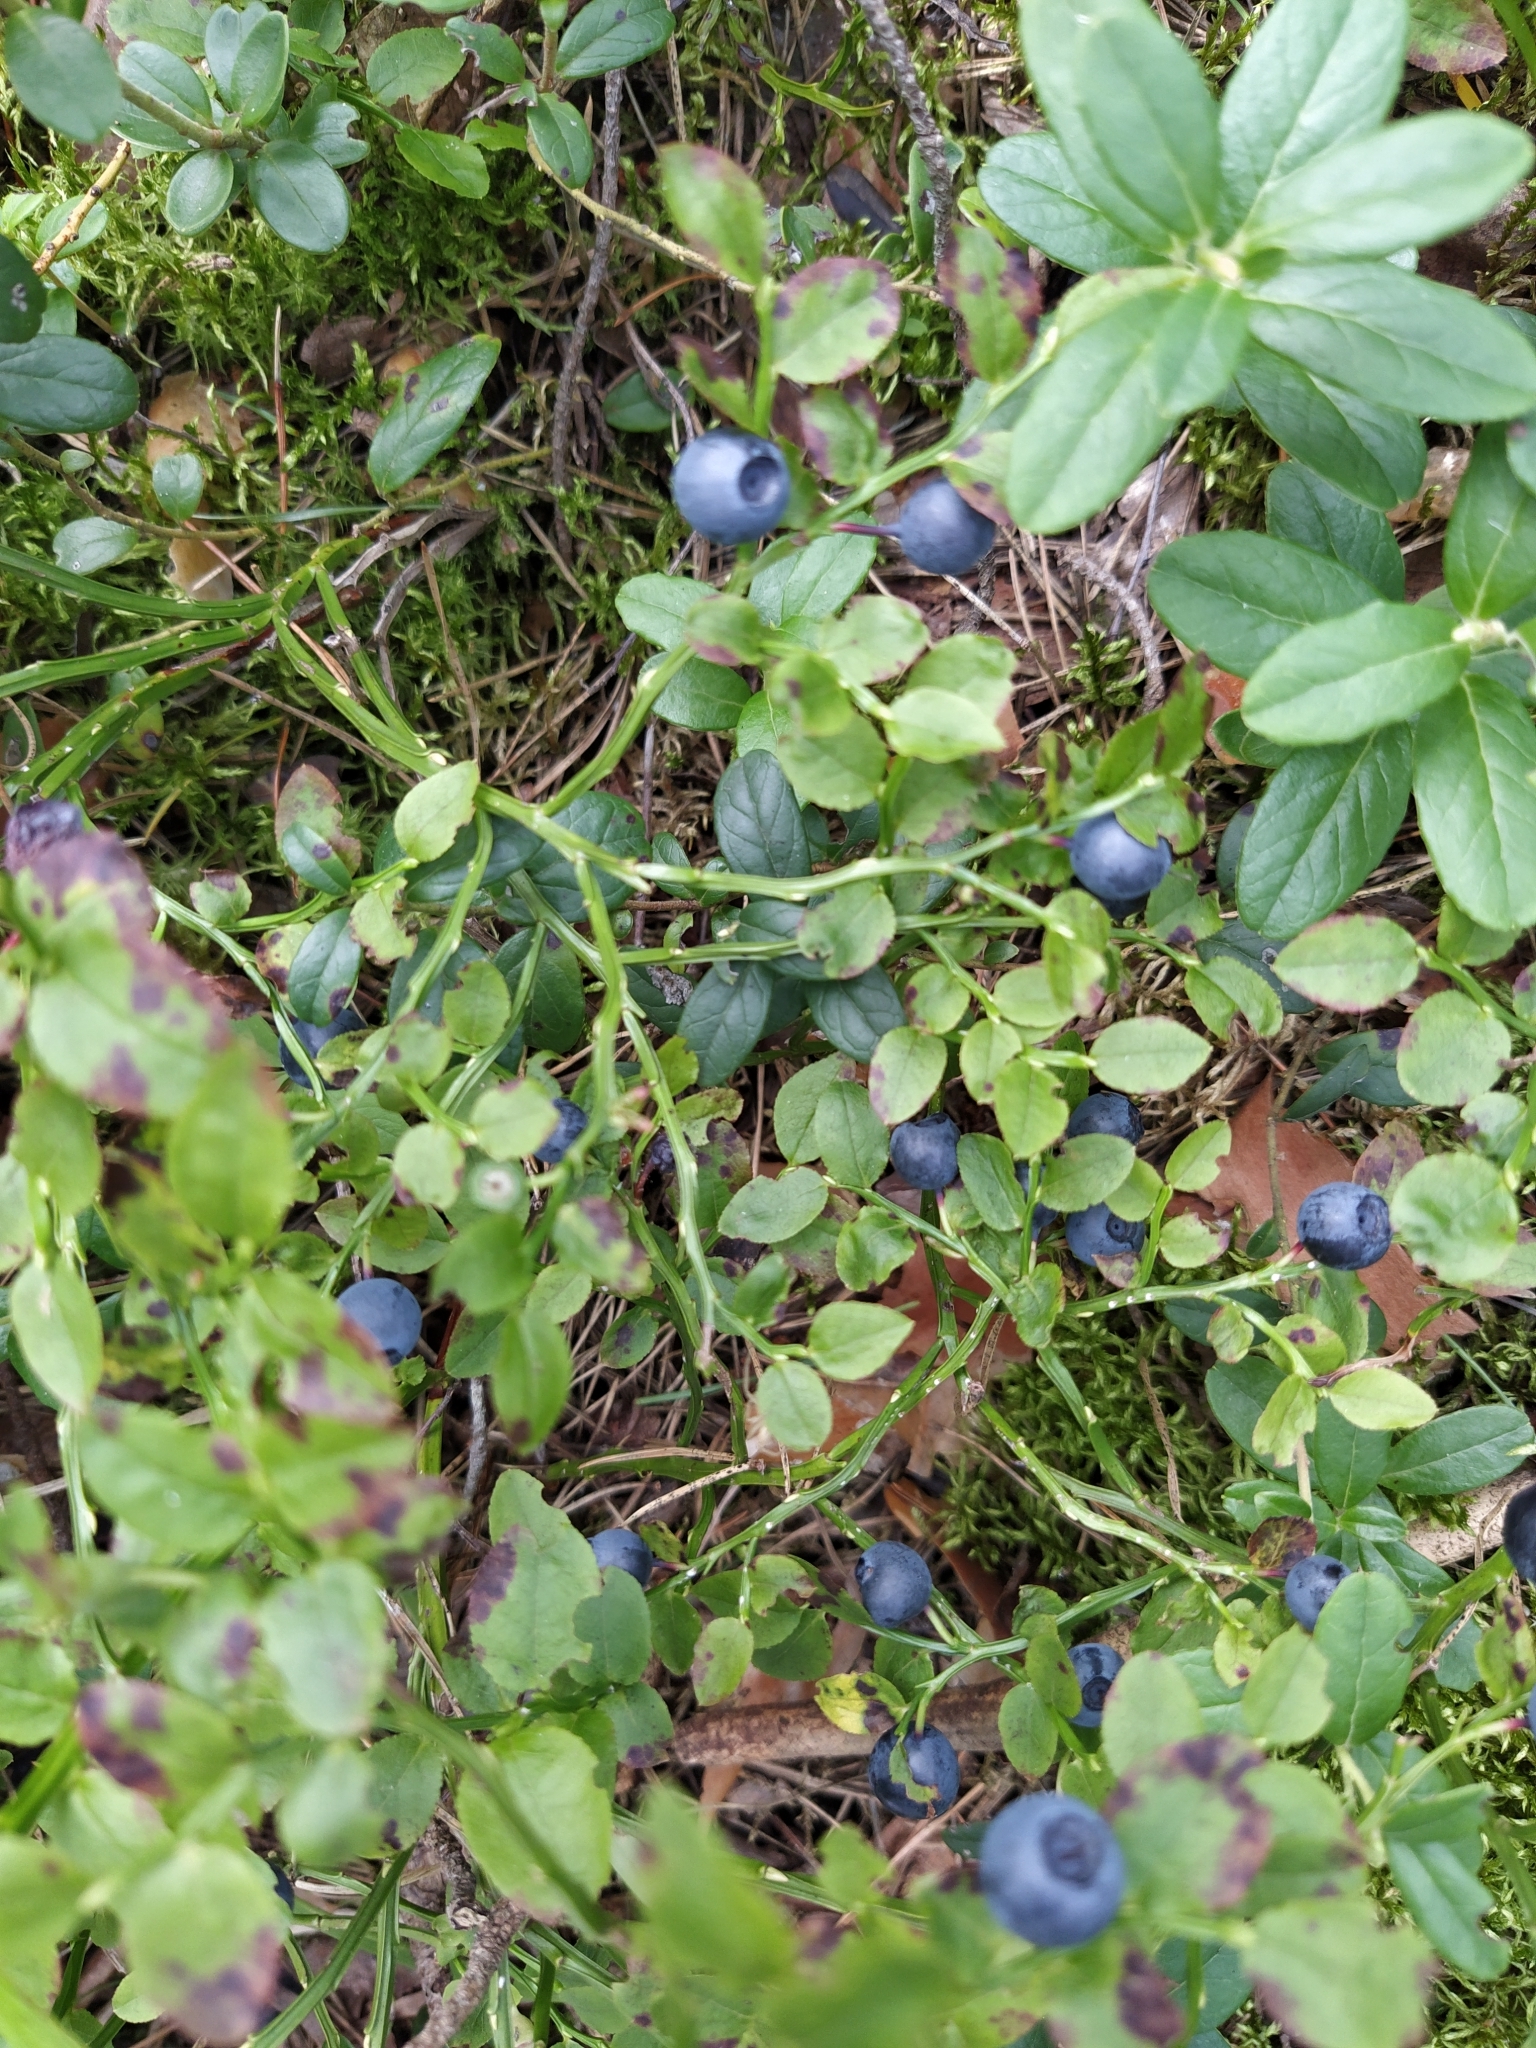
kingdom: Plantae
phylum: Tracheophyta
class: Magnoliopsida
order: Ericales
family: Ericaceae
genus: Vaccinium
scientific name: Vaccinium myrtillus
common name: Bilberry
